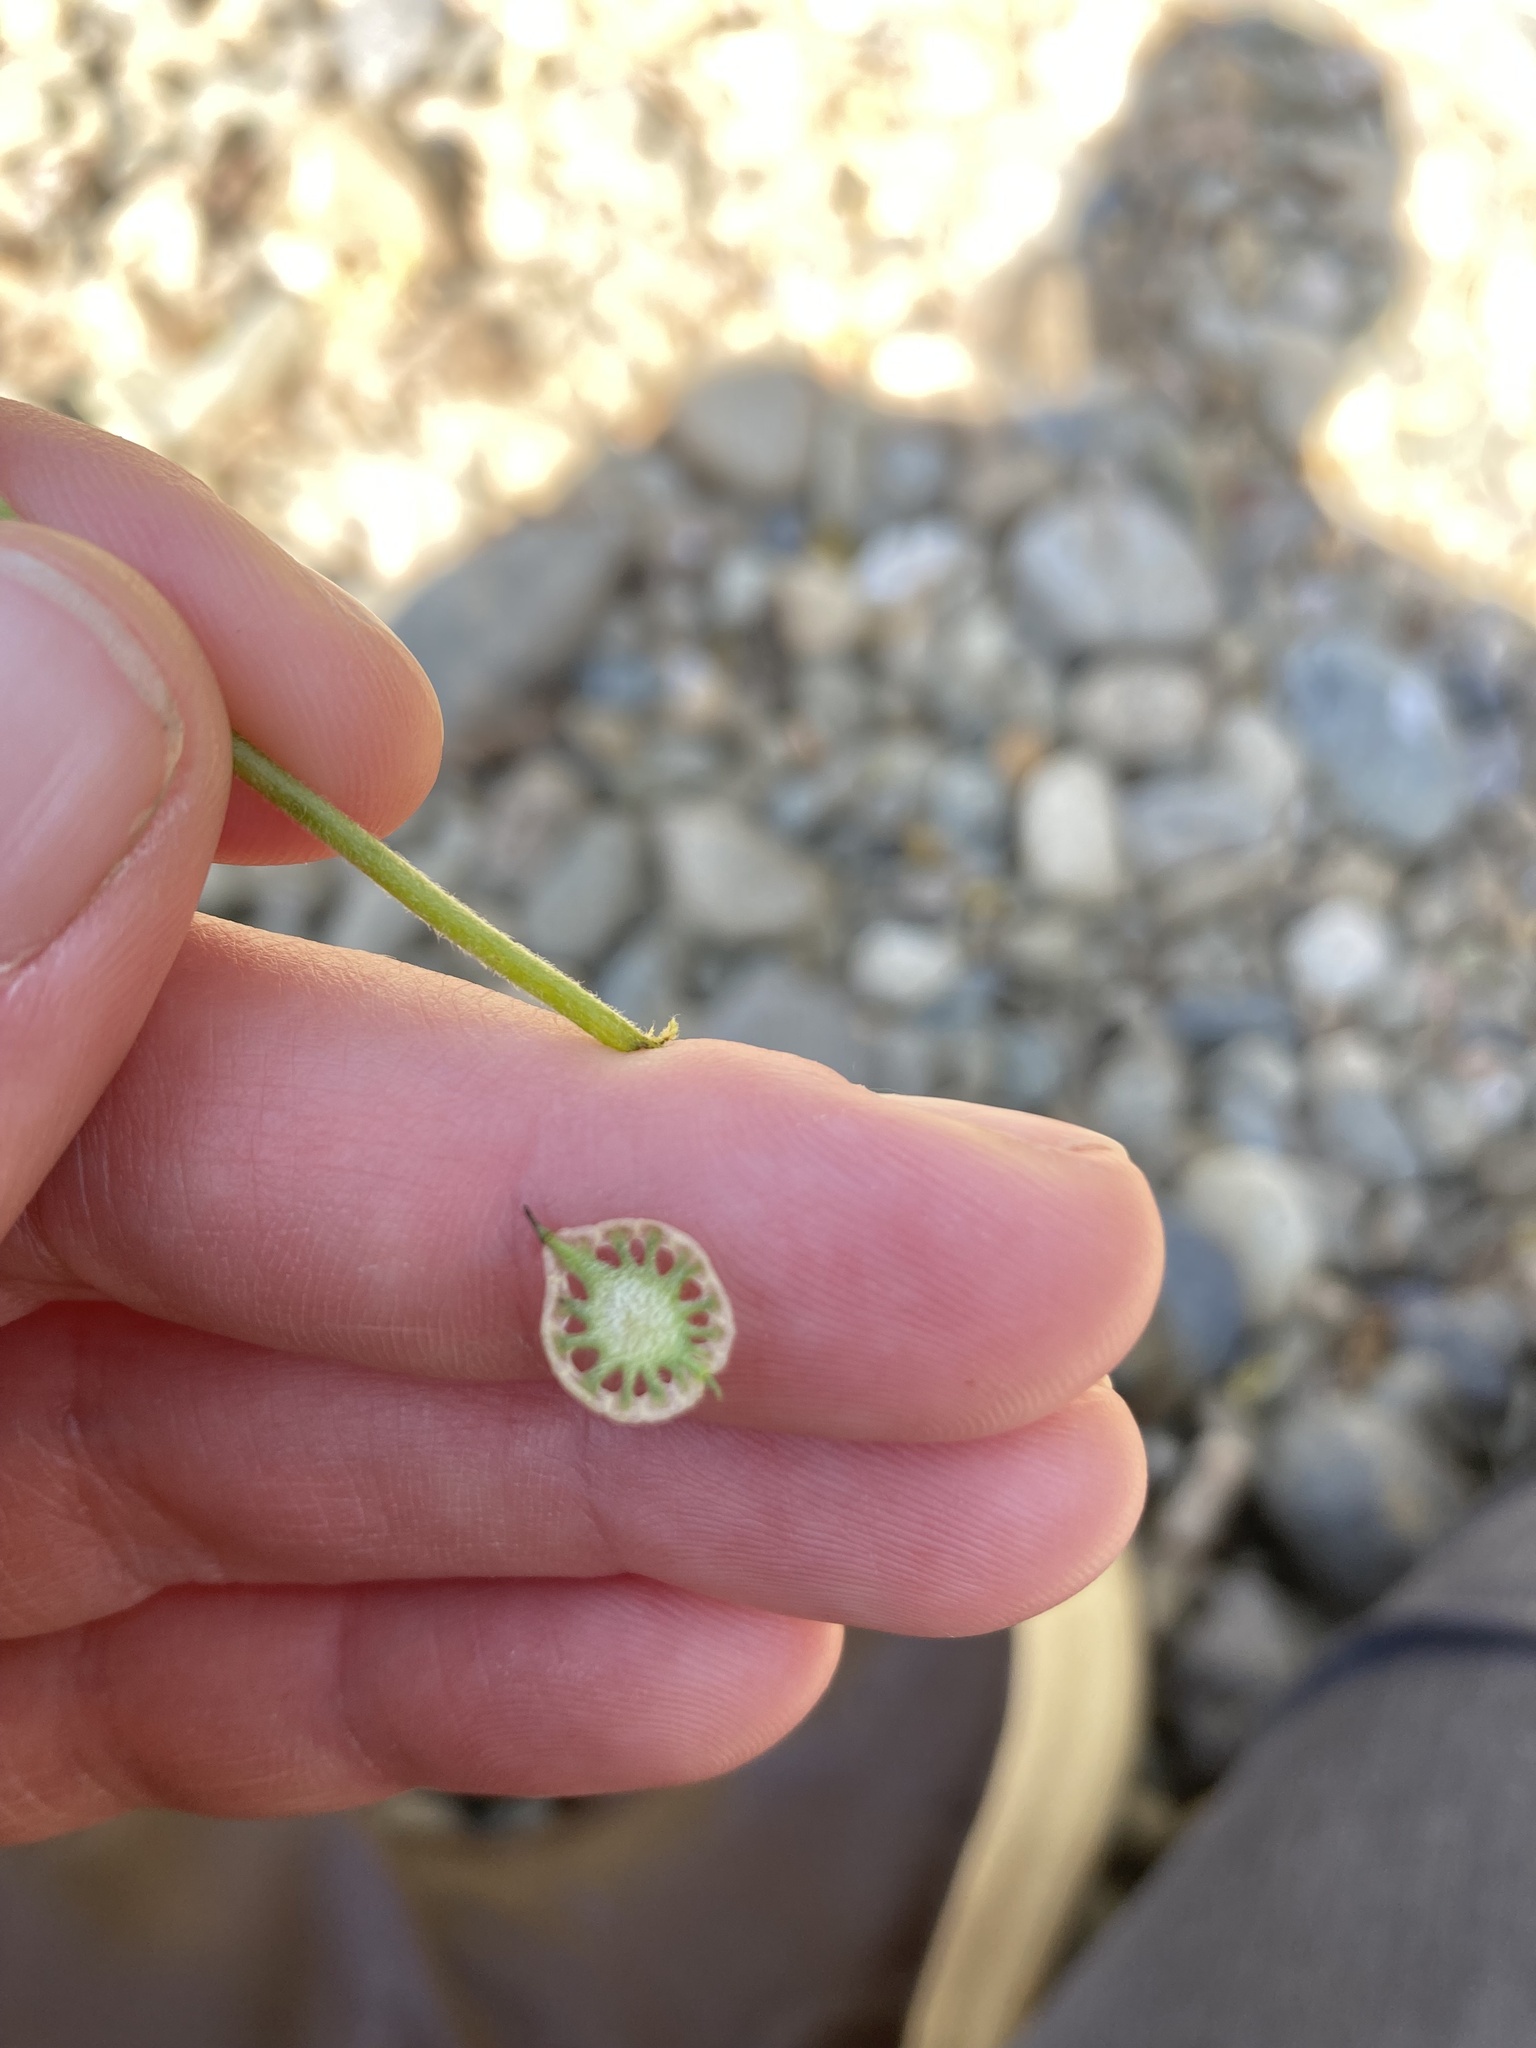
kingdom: Plantae
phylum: Tracheophyta
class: Magnoliopsida
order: Brassicales
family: Brassicaceae
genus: Thysanocarpus
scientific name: Thysanocarpus curvipes
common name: Sand fringepod
